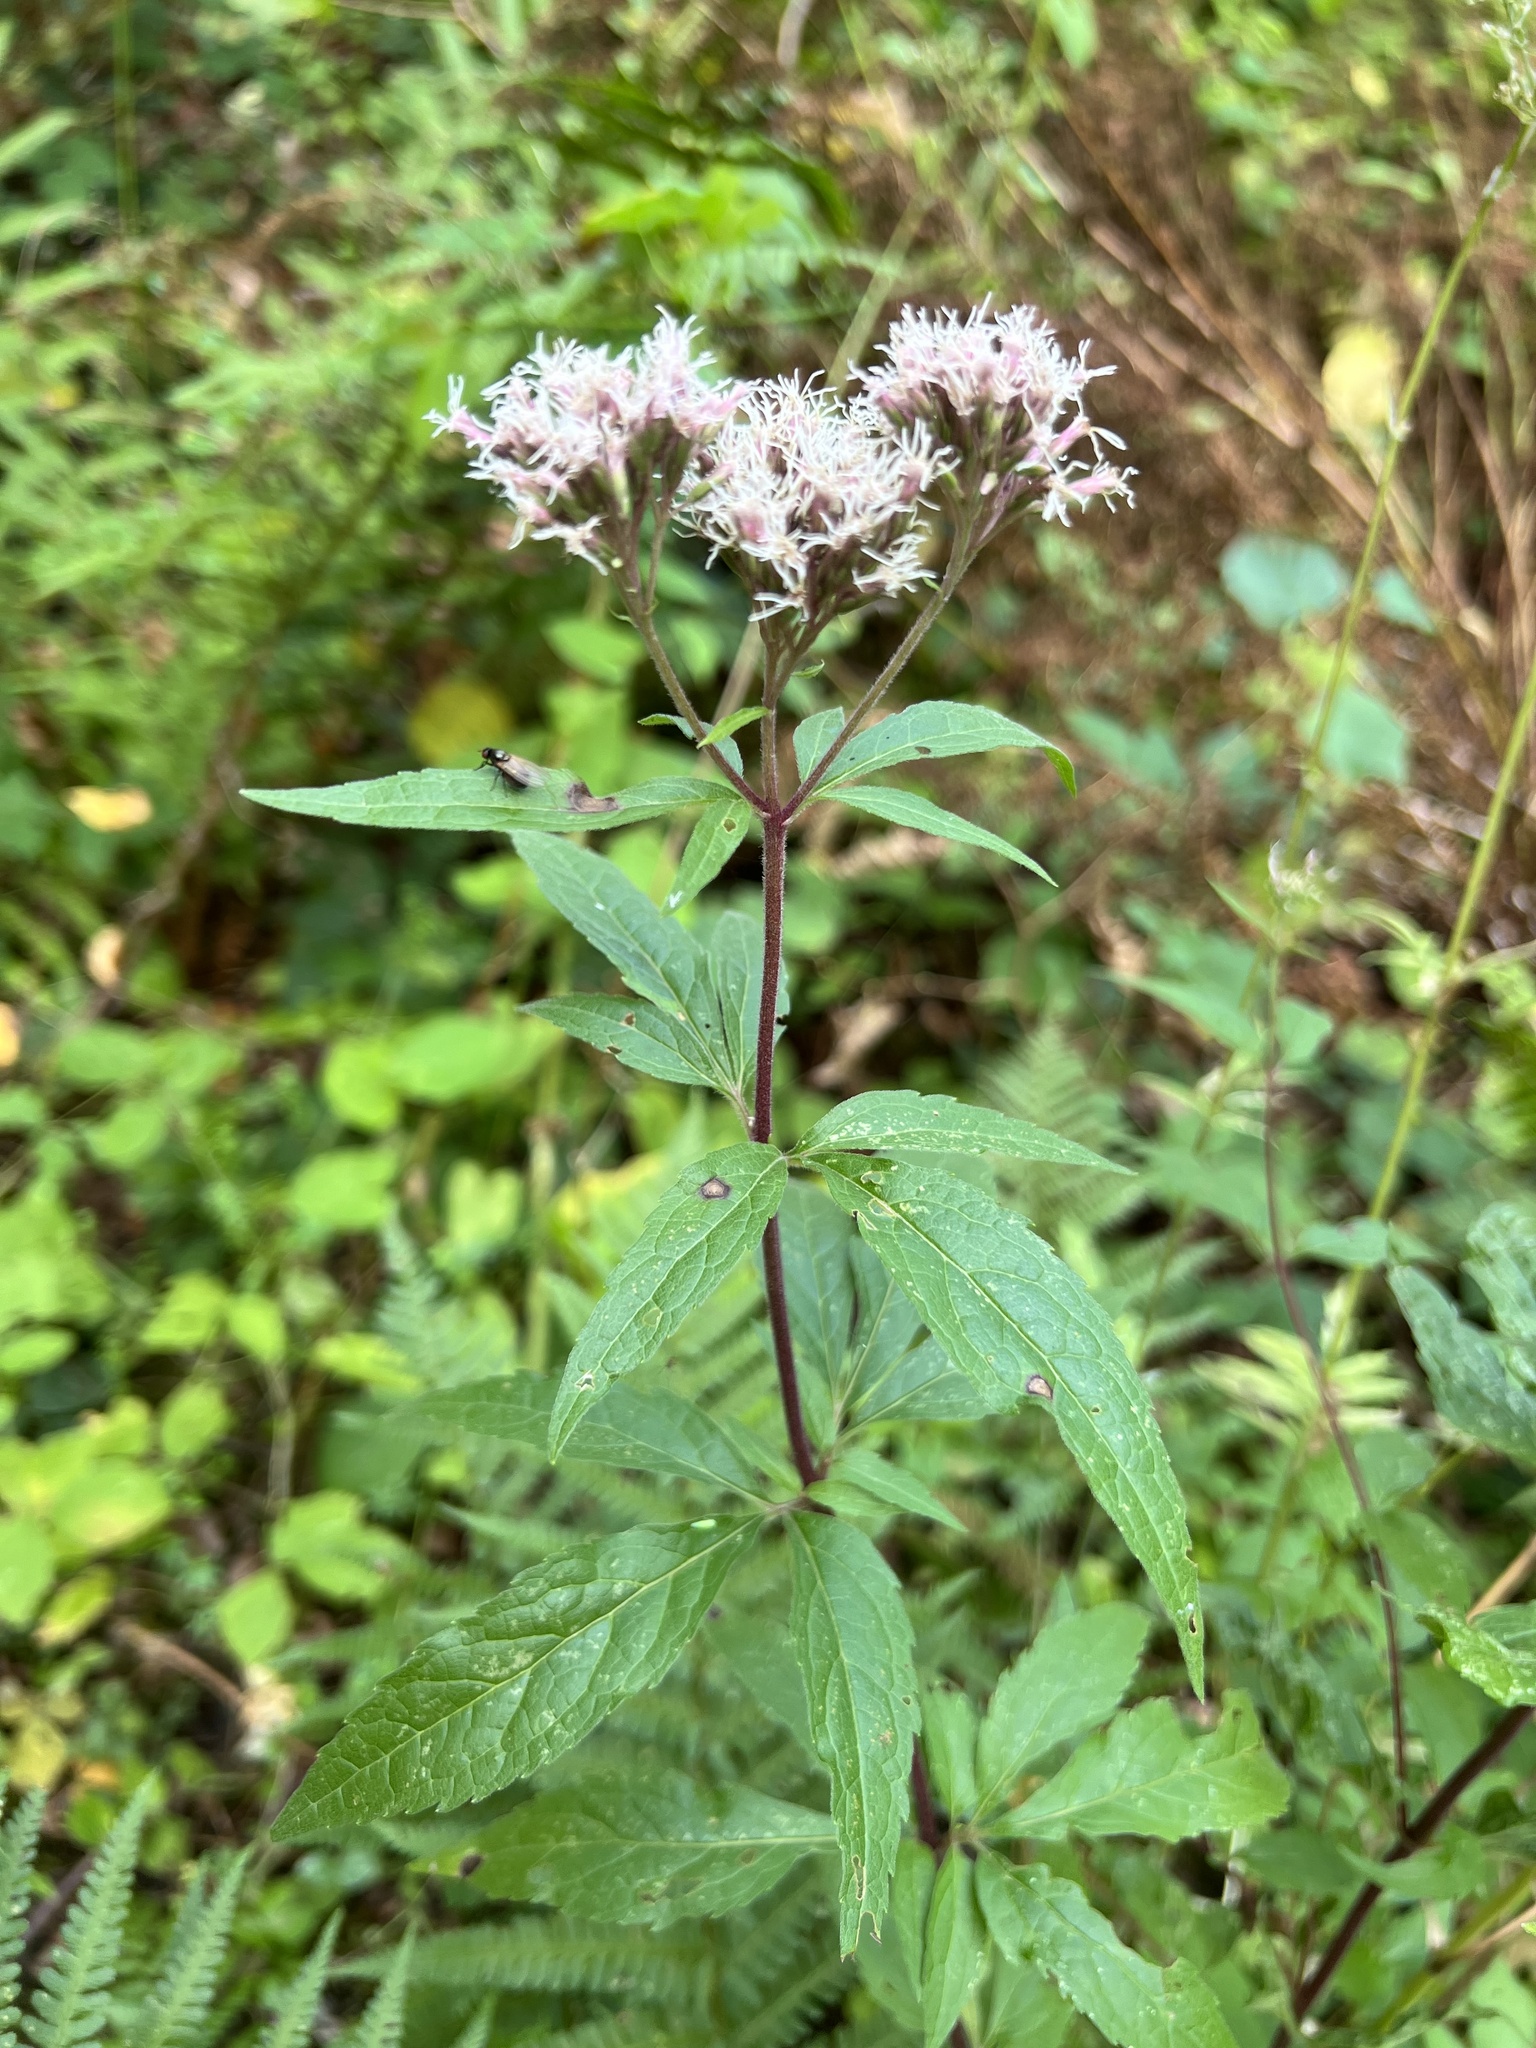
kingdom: Plantae
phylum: Tracheophyta
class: Magnoliopsida
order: Asterales
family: Asteraceae
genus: Eupatorium
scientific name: Eupatorium cannabinum
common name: Hemp-agrimony
